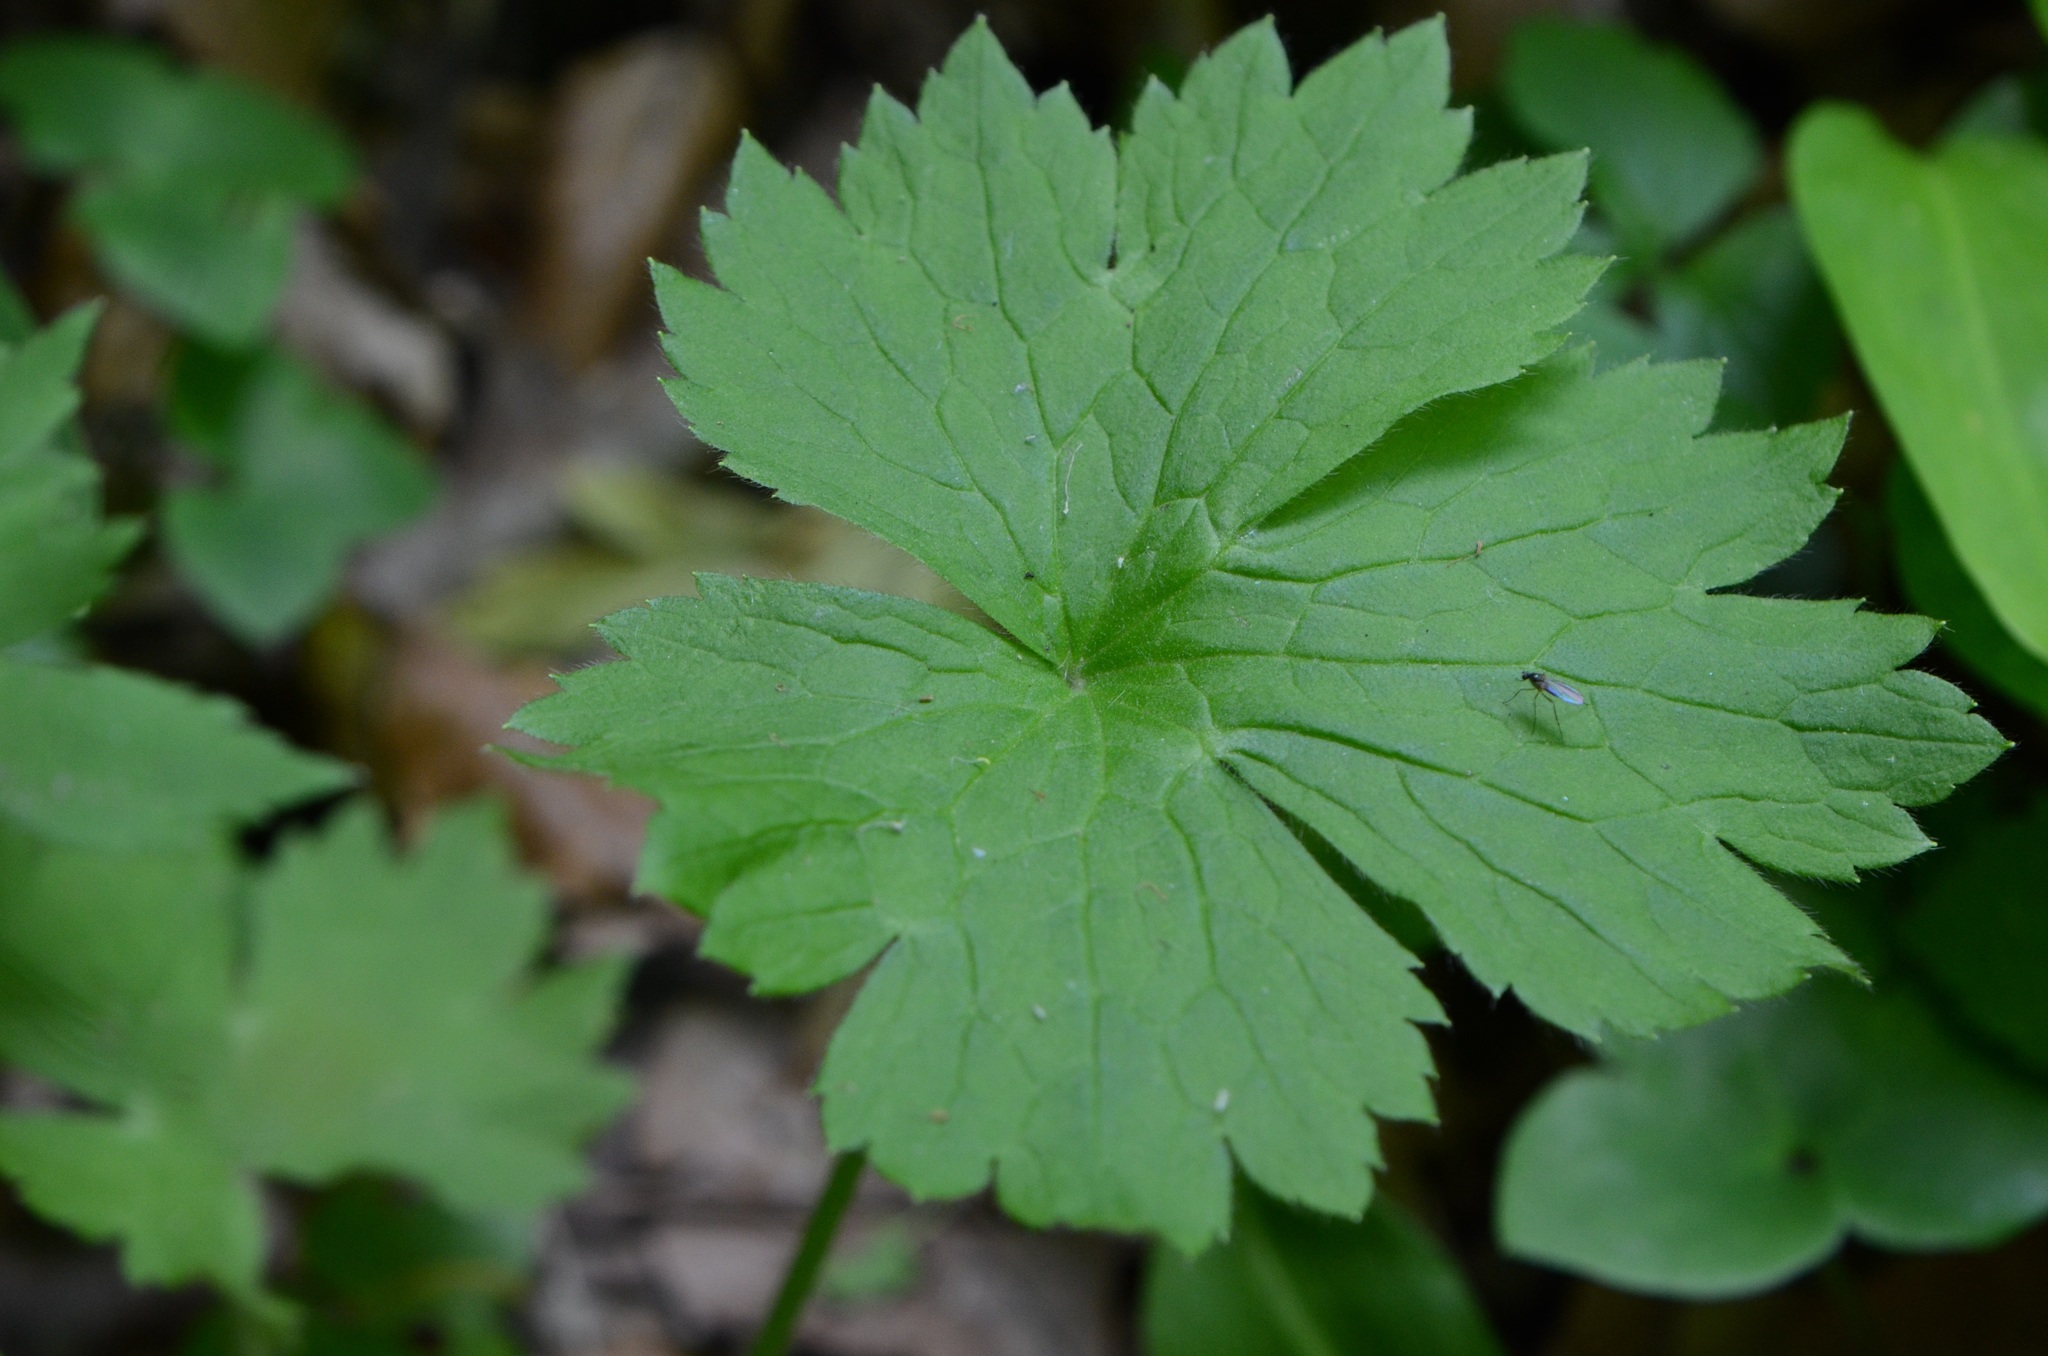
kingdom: Plantae
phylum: Tracheophyta
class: Magnoliopsida
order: Ranunculales
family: Ranunculaceae
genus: Ranunculus
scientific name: Ranunculus lanuginosus
